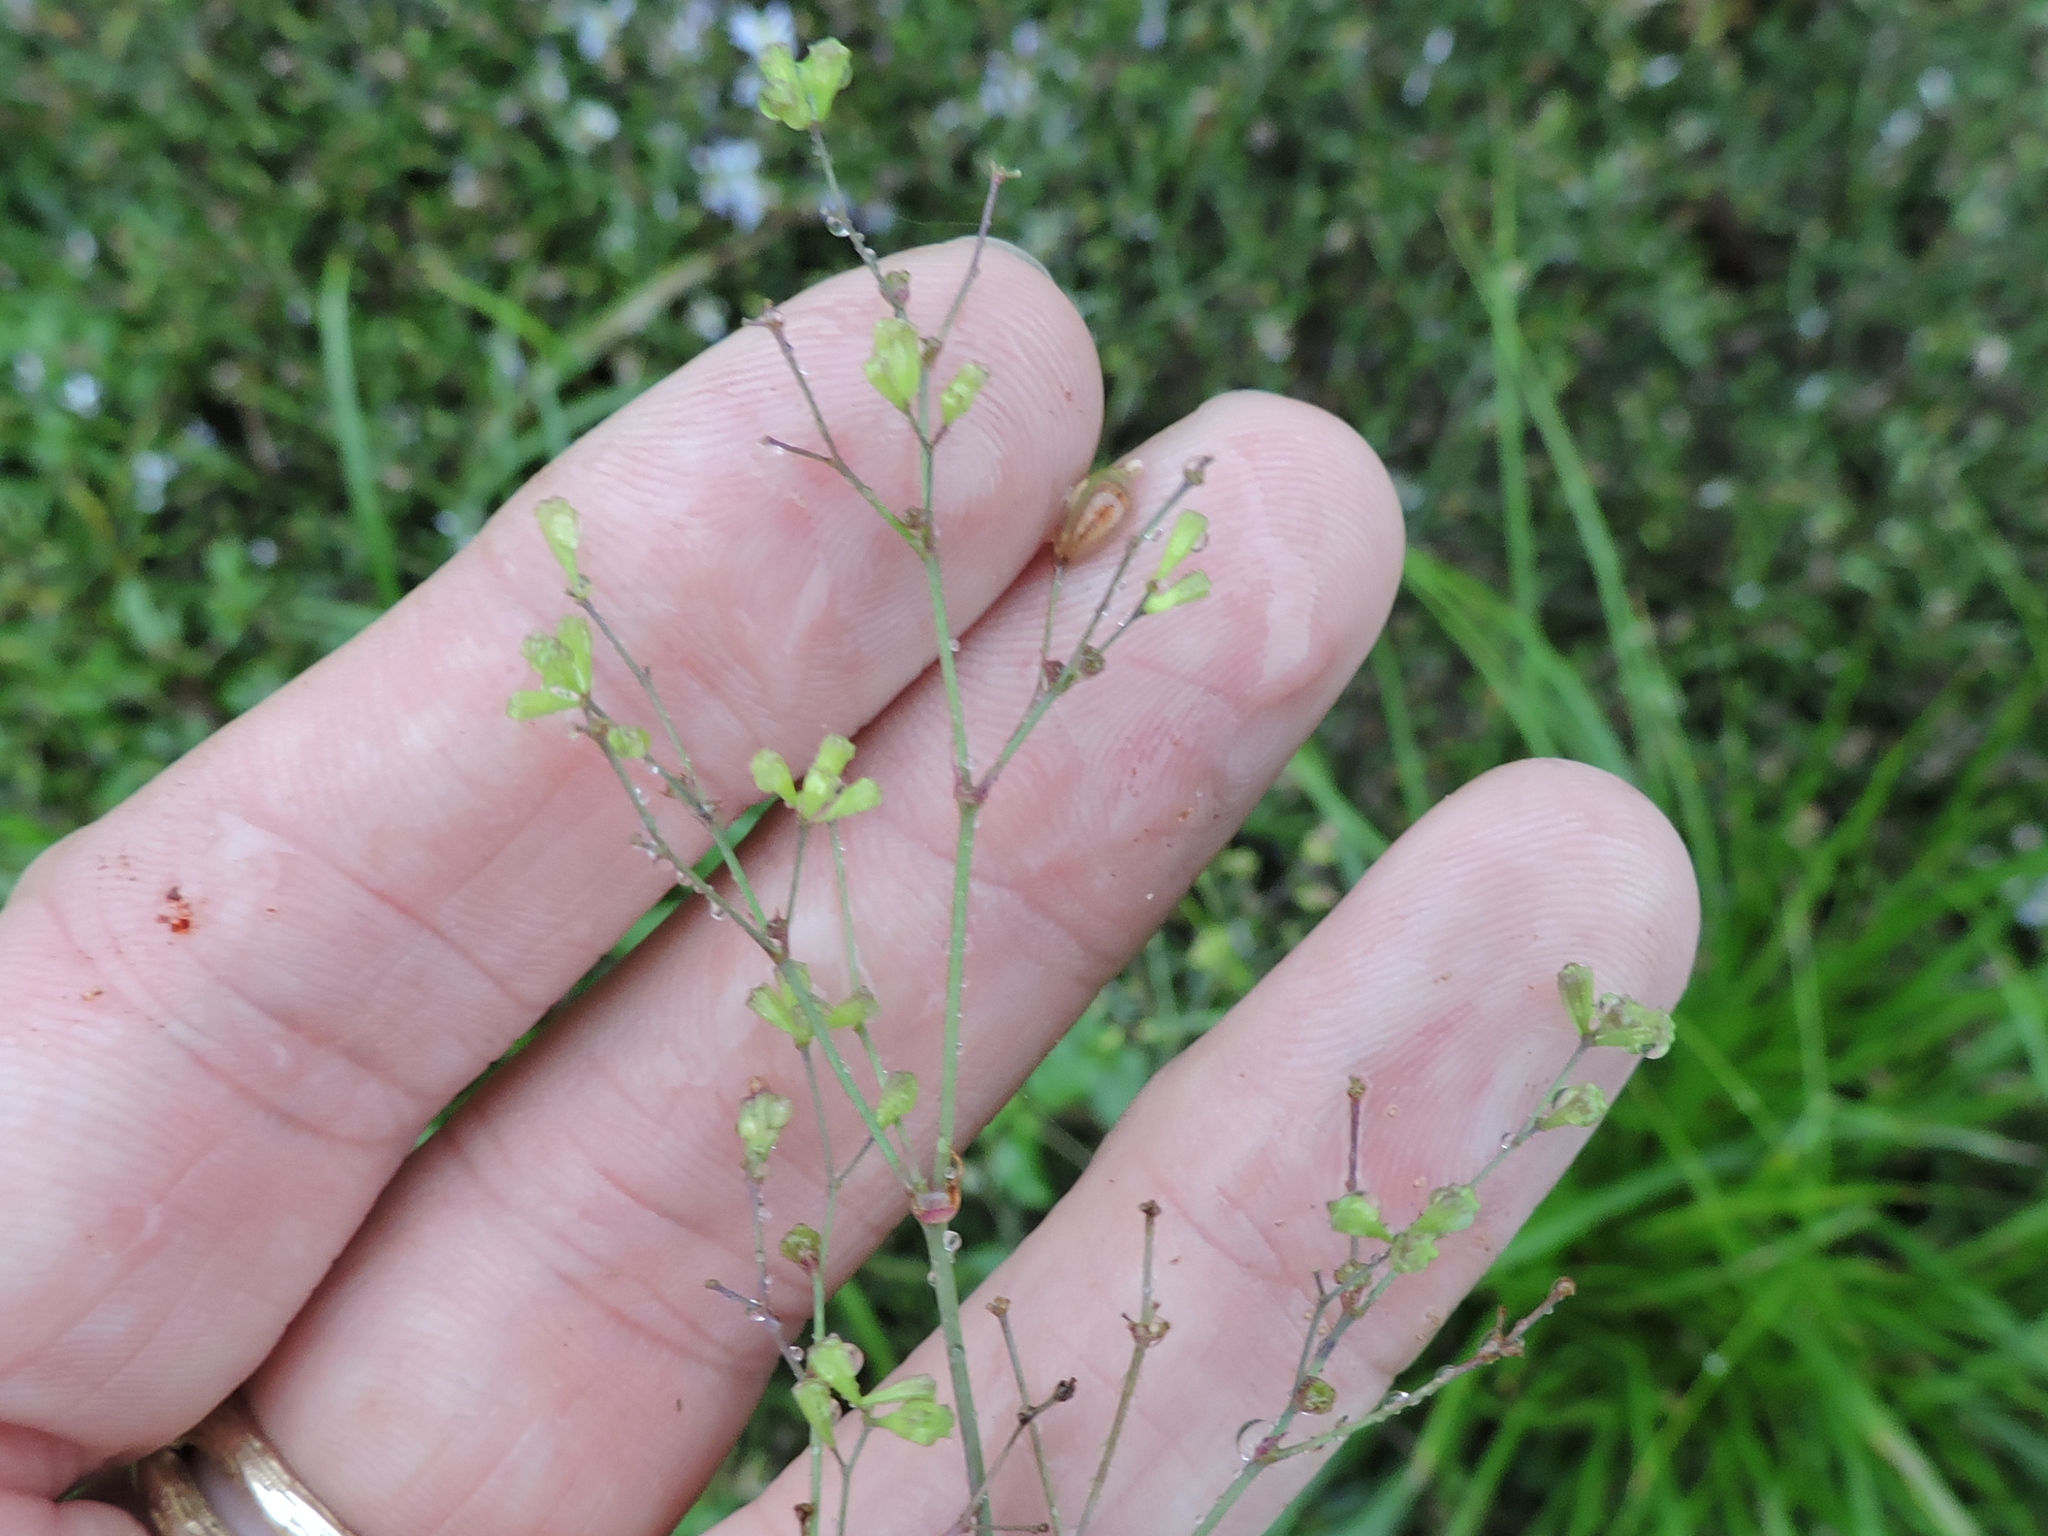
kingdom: Plantae
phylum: Tracheophyta
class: Magnoliopsida
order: Caryophyllales
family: Nyctaginaceae
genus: Boerhavia
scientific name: Boerhavia erecta
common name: Erect spiderling
